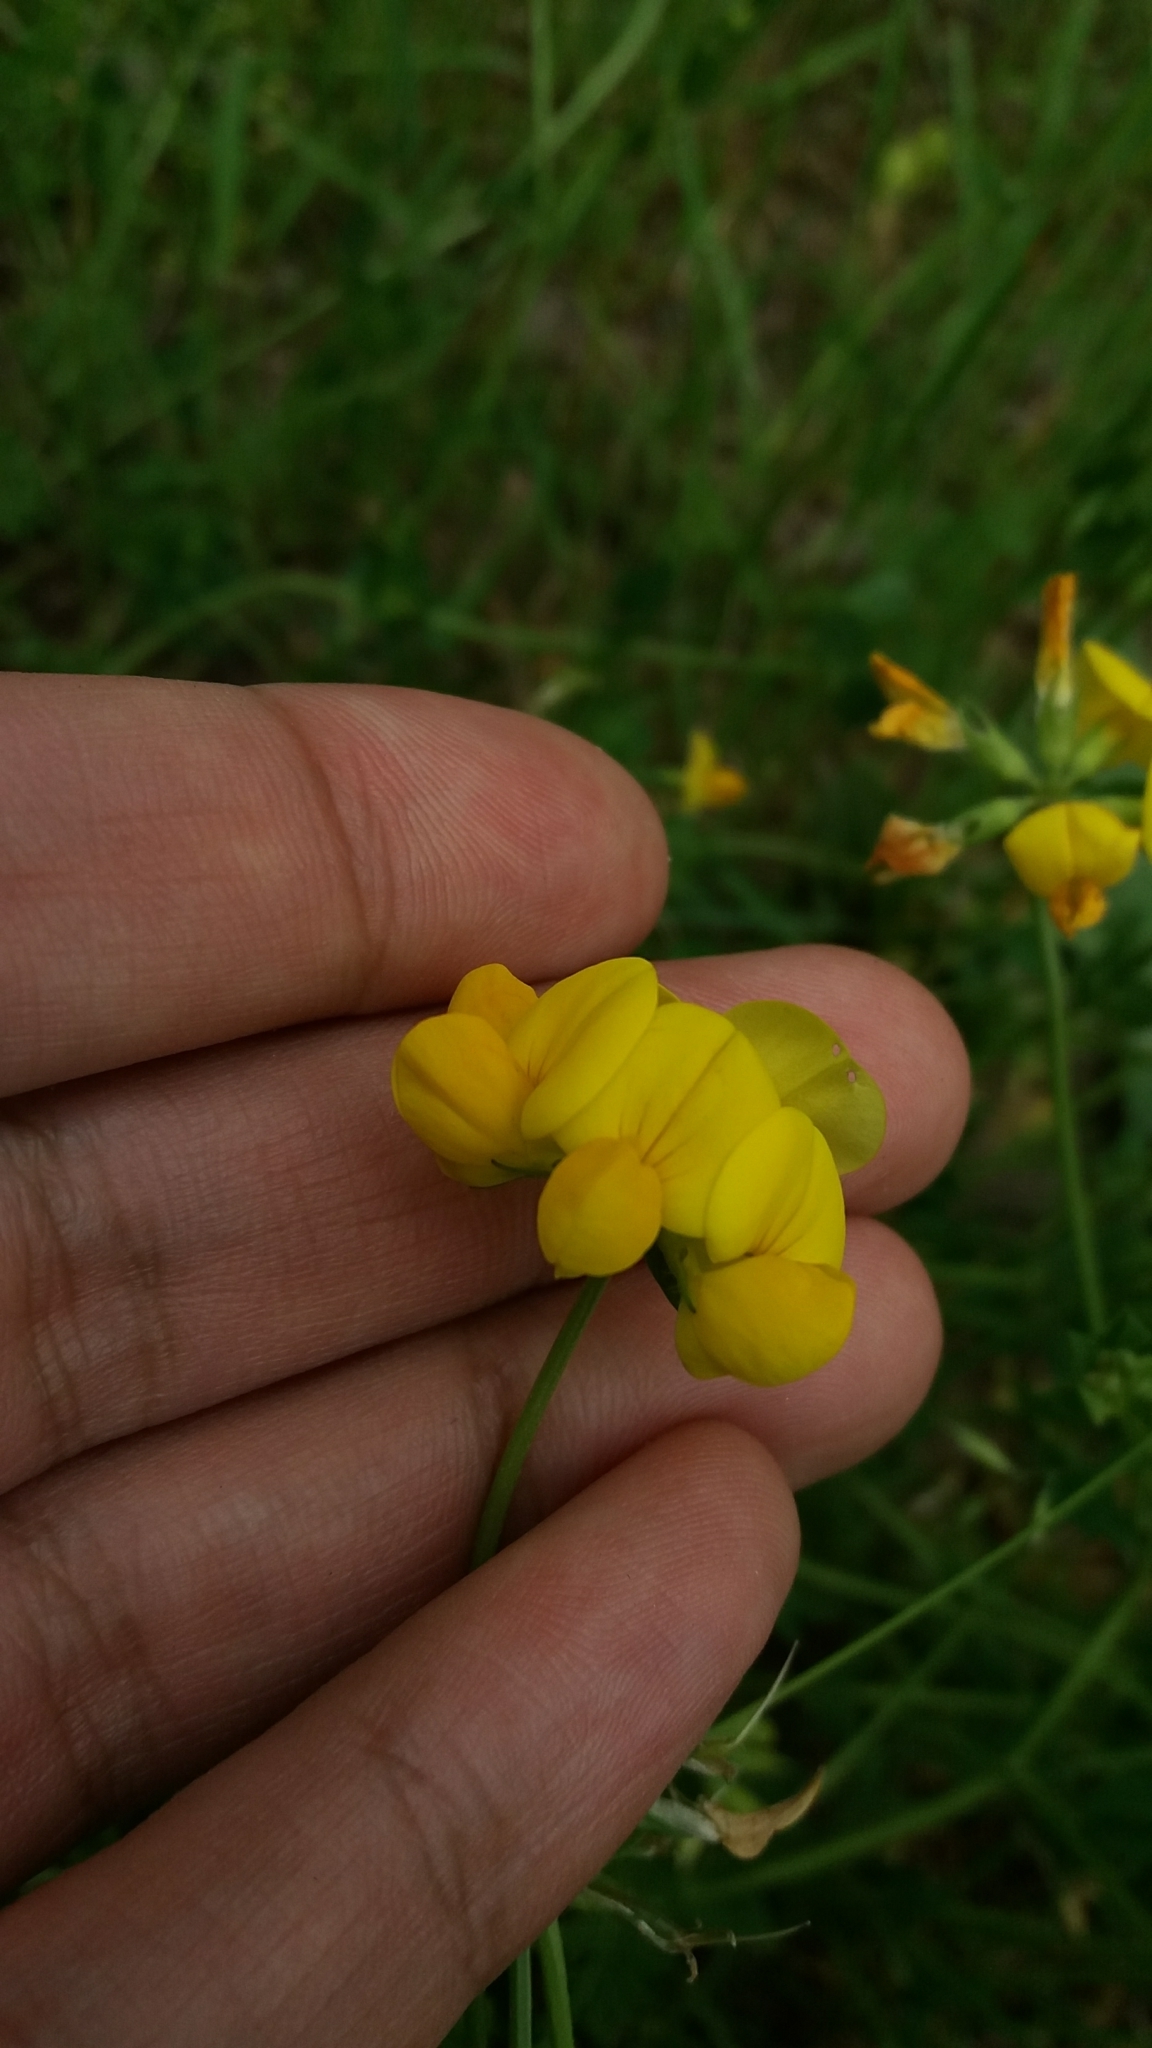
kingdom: Plantae
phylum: Tracheophyta
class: Magnoliopsida
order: Fabales
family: Fabaceae
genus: Lotus
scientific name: Lotus corniculatus
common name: Common bird's-foot-trefoil
